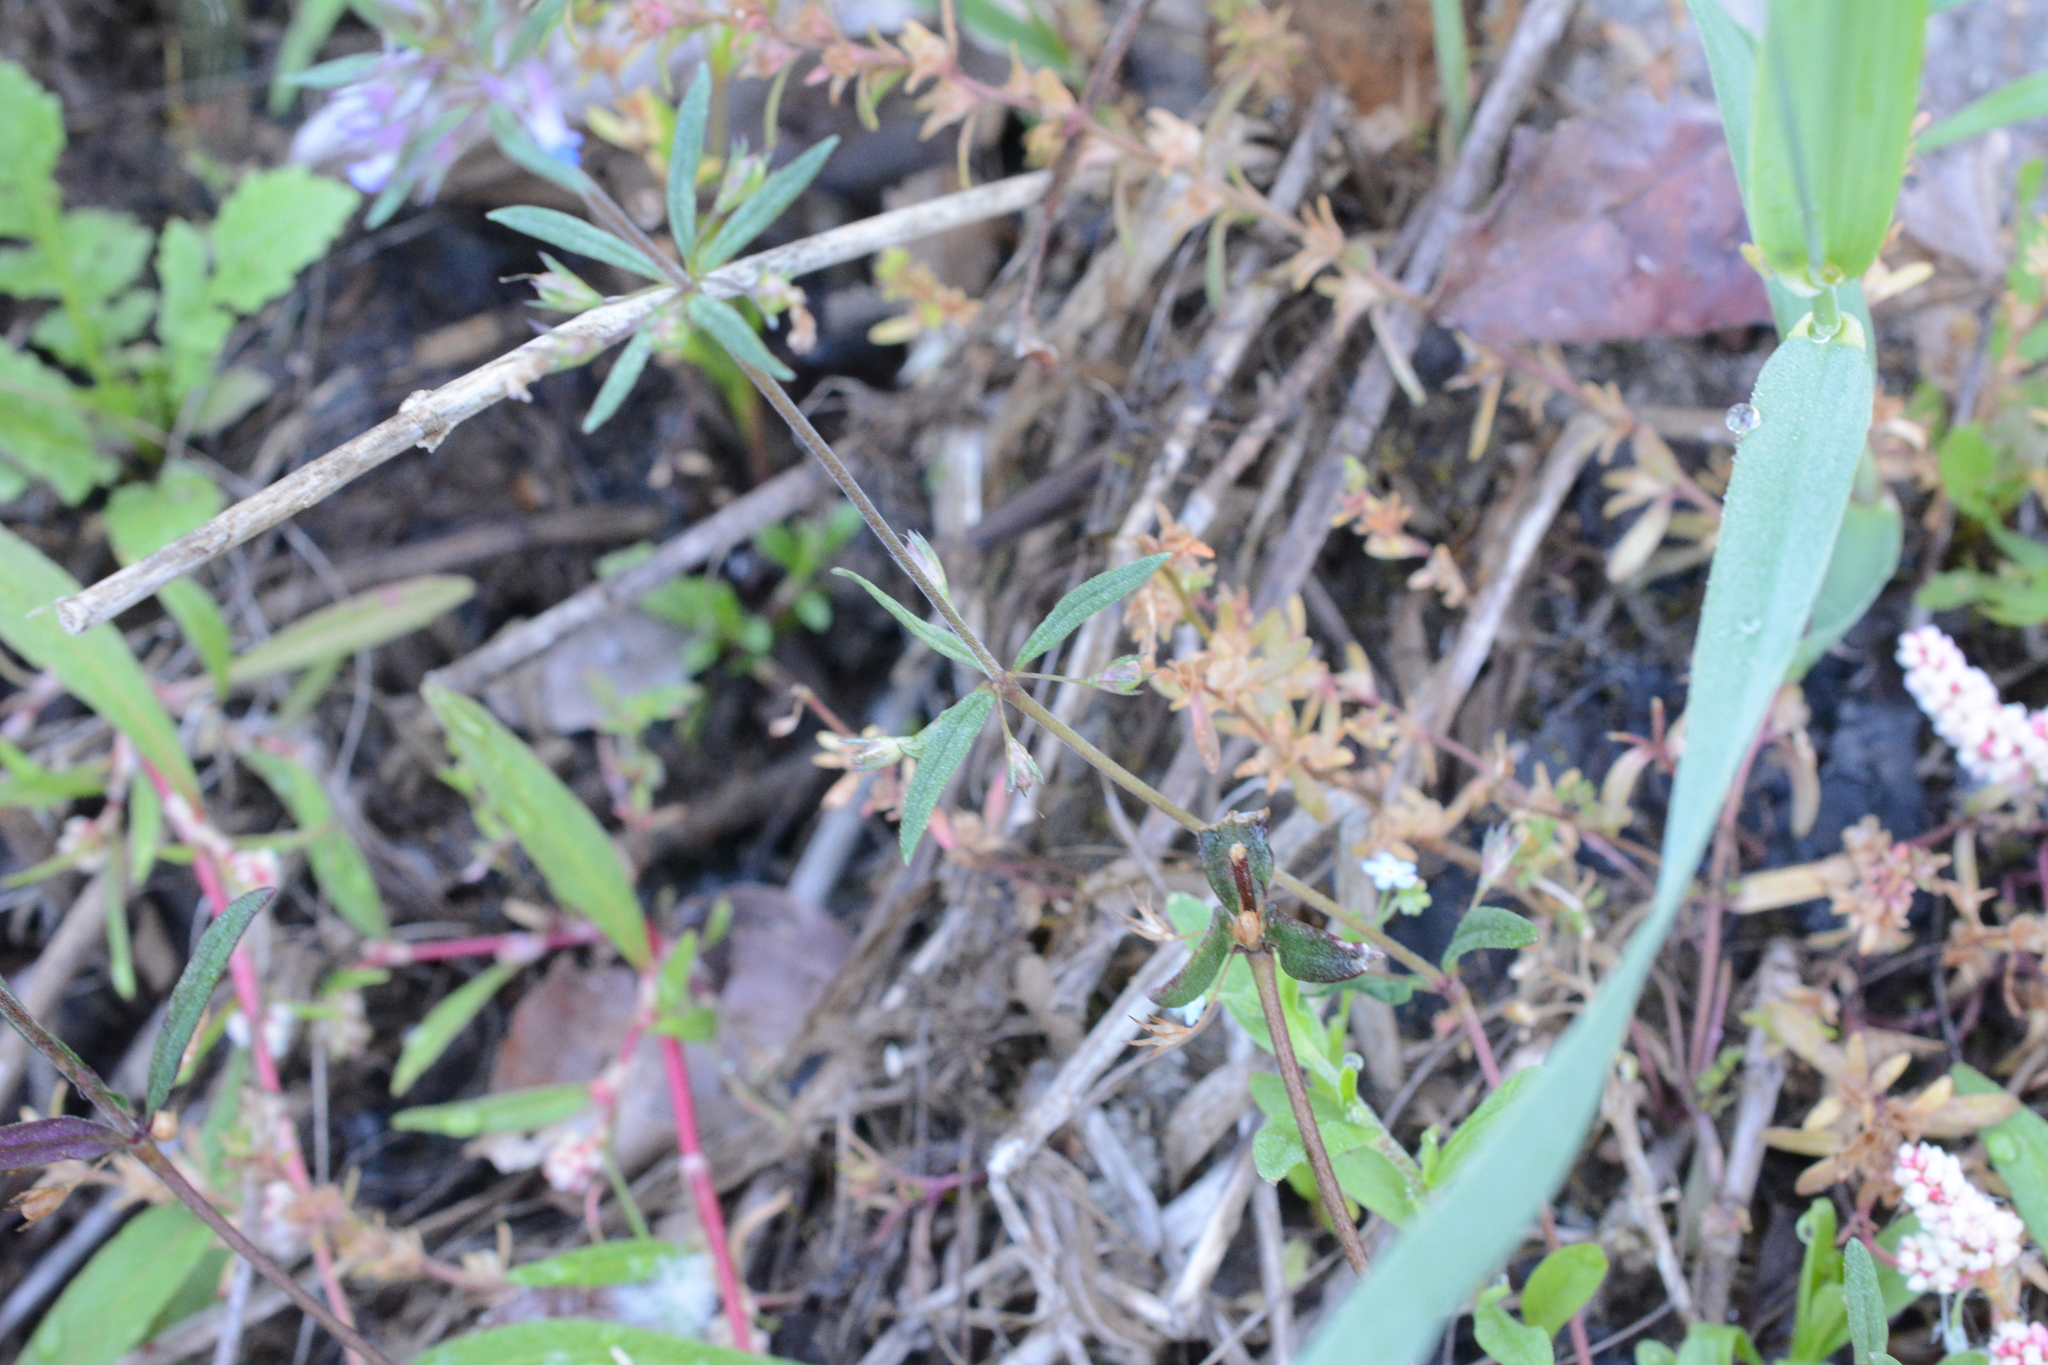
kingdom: Plantae
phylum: Tracheophyta
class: Magnoliopsida
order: Lamiales
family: Plantaginaceae
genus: Collinsia
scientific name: Collinsia parviflora
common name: Blue-lips
